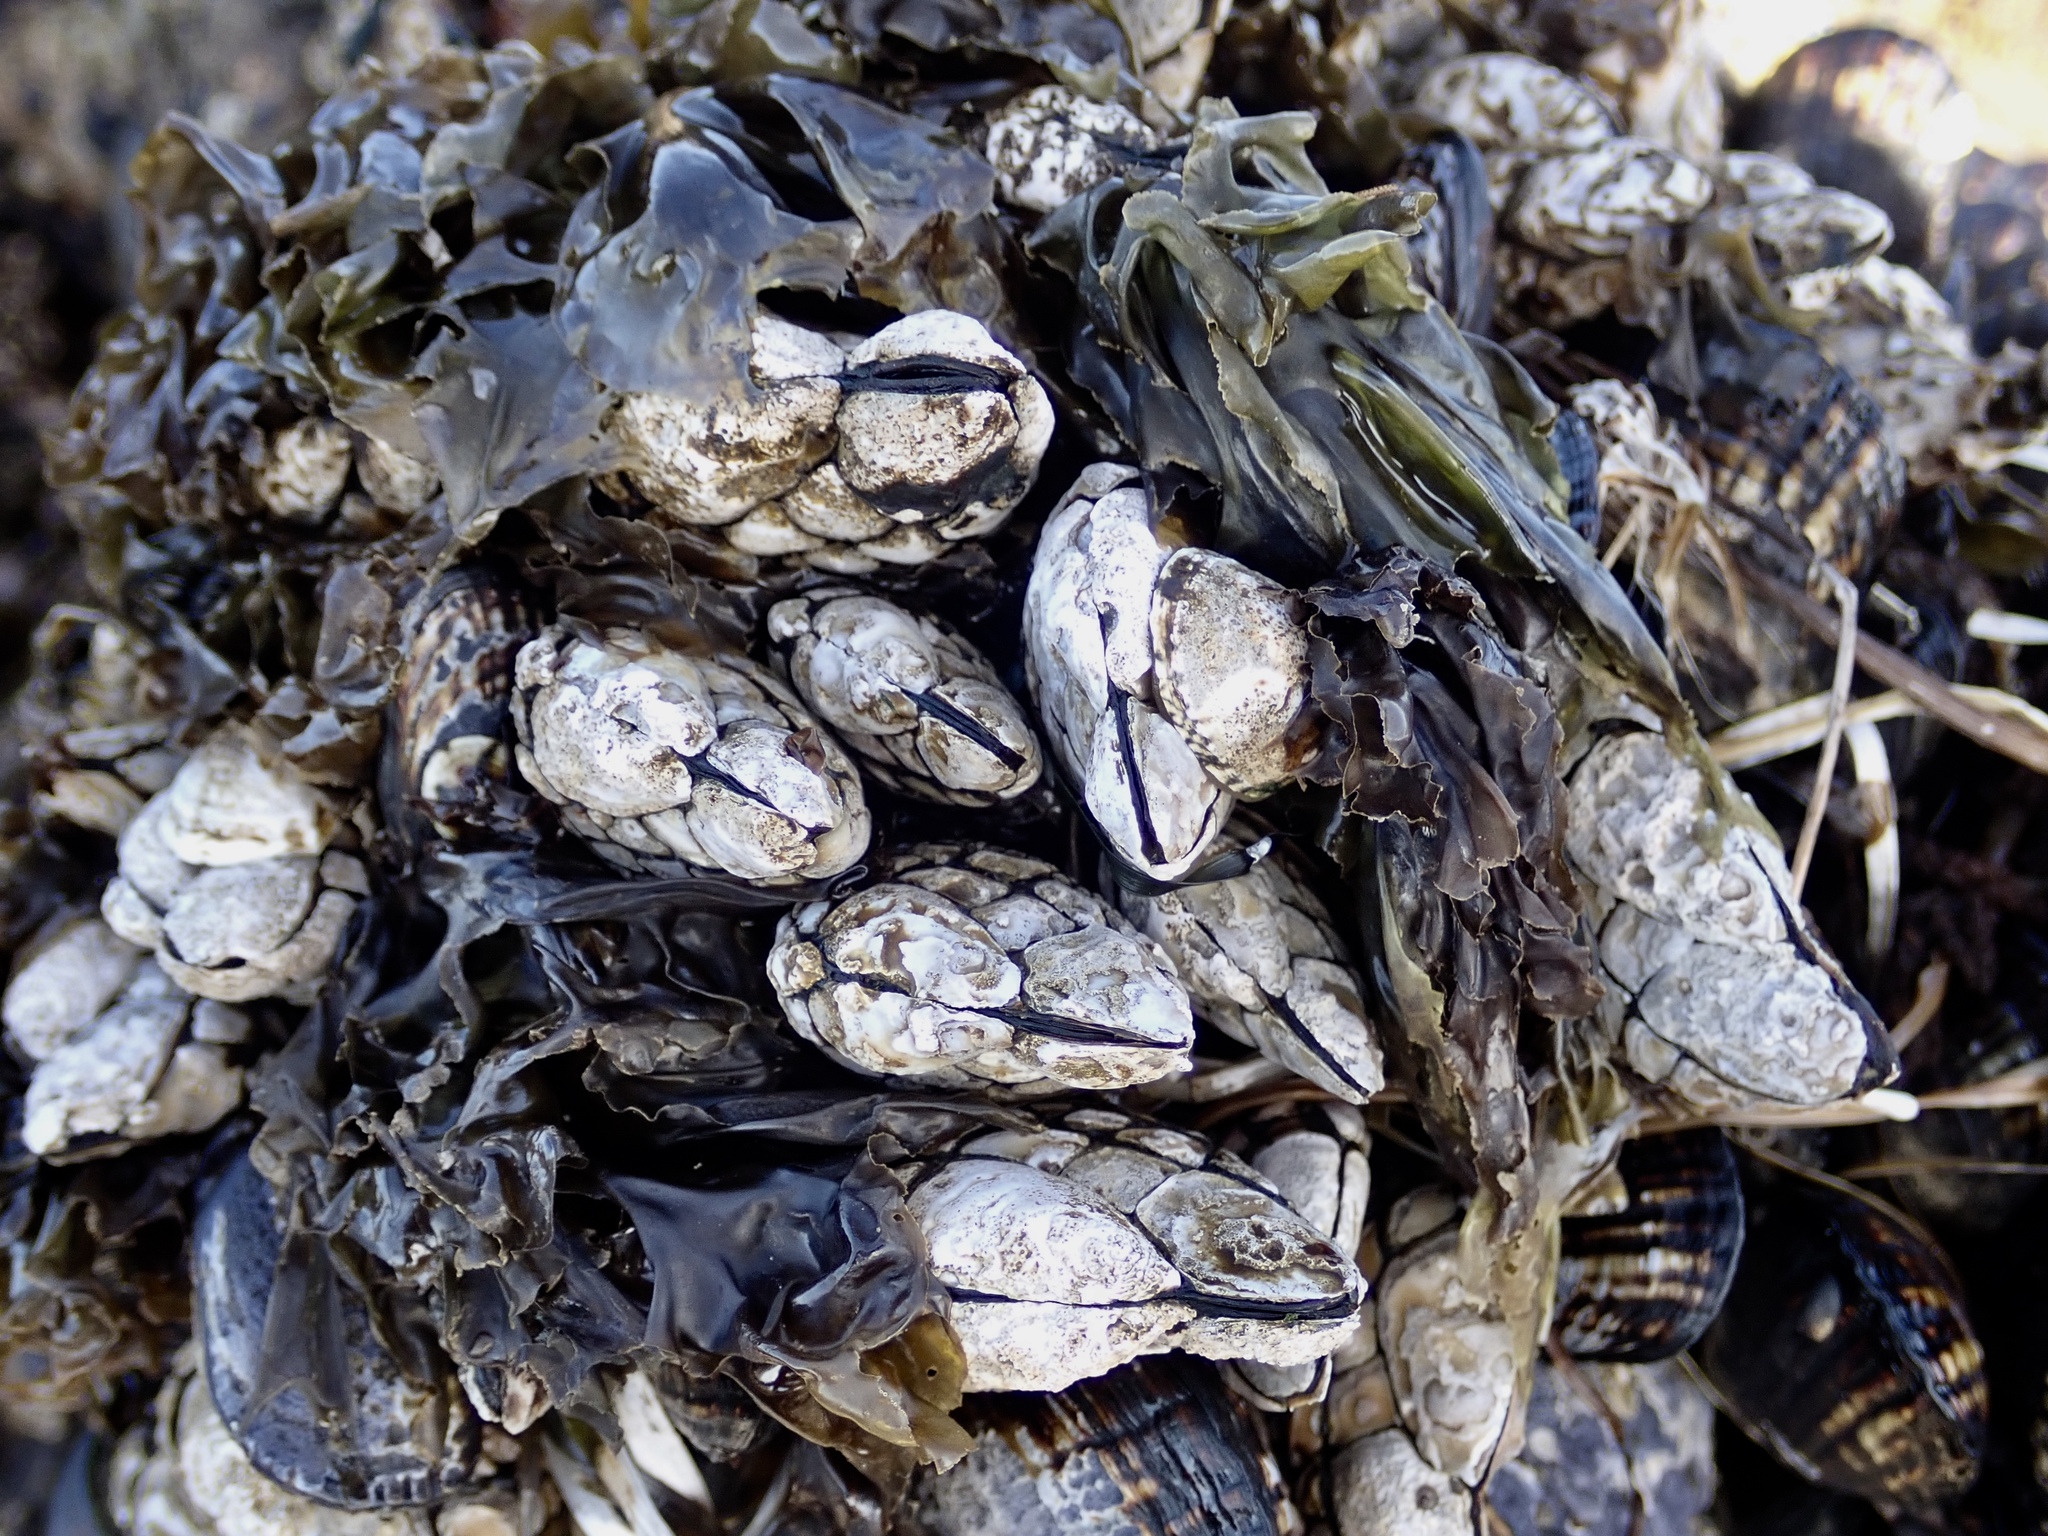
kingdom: Animalia
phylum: Arthropoda
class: Maxillopoda
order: Pedunculata
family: Pollicipedidae
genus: Pollicipes
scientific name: Pollicipes polymerus
